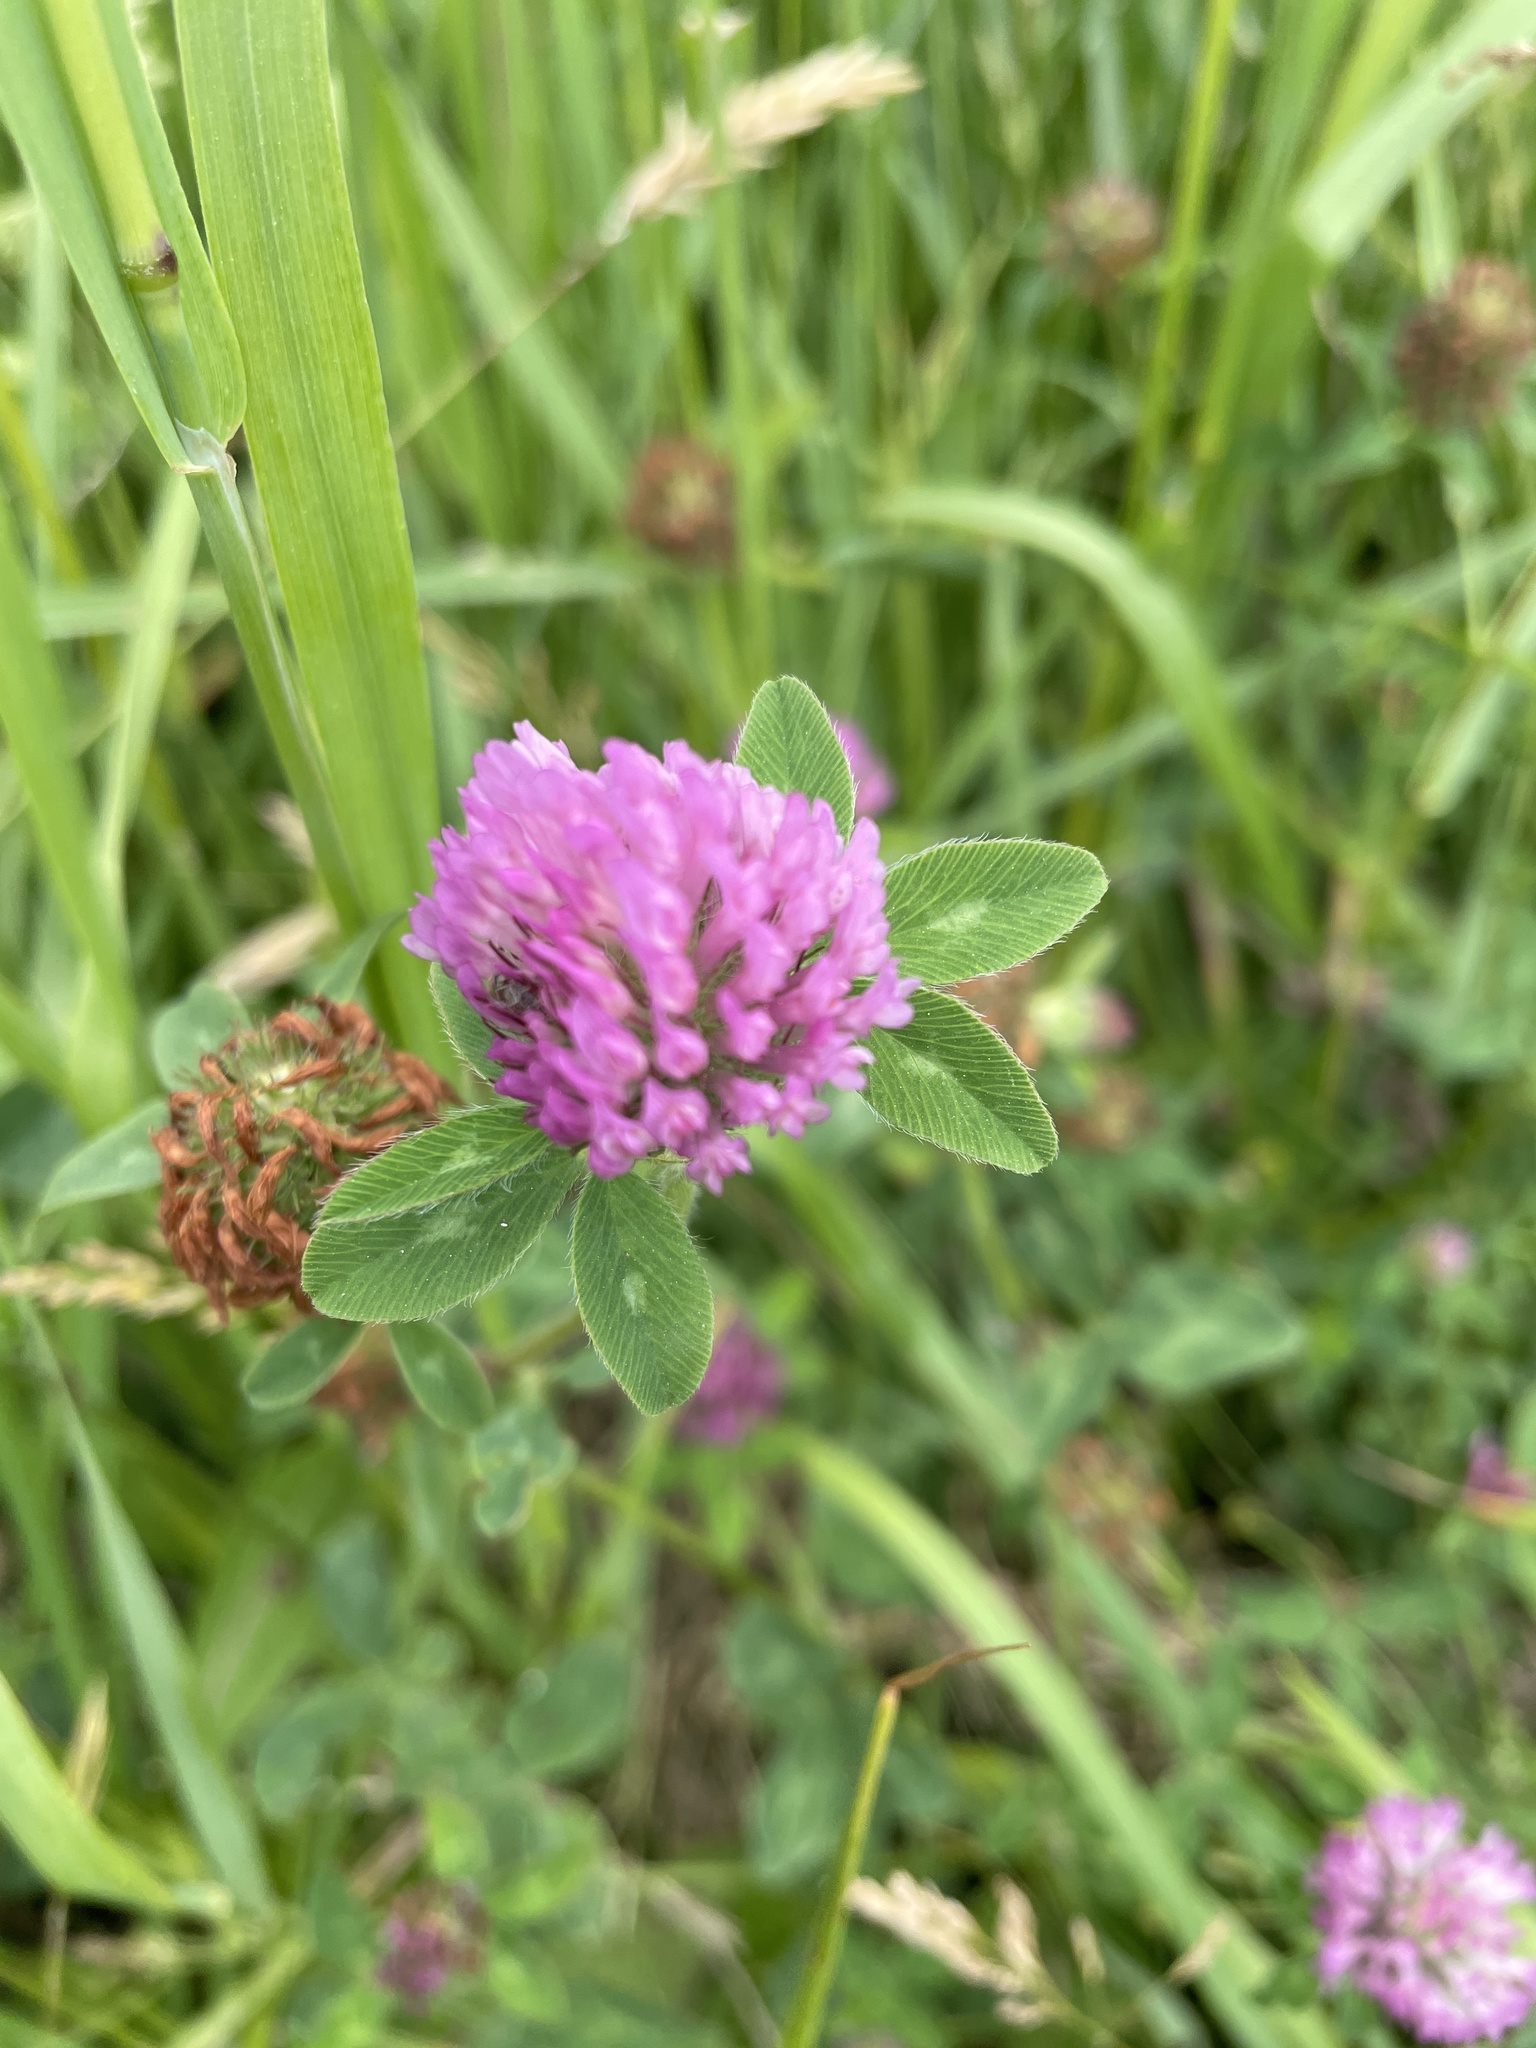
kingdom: Plantae
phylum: Tracheophyta
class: Magnoliopsida
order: Fabales
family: Fabaceae
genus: Trifolium
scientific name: Trifolium pratense
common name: Red clover
